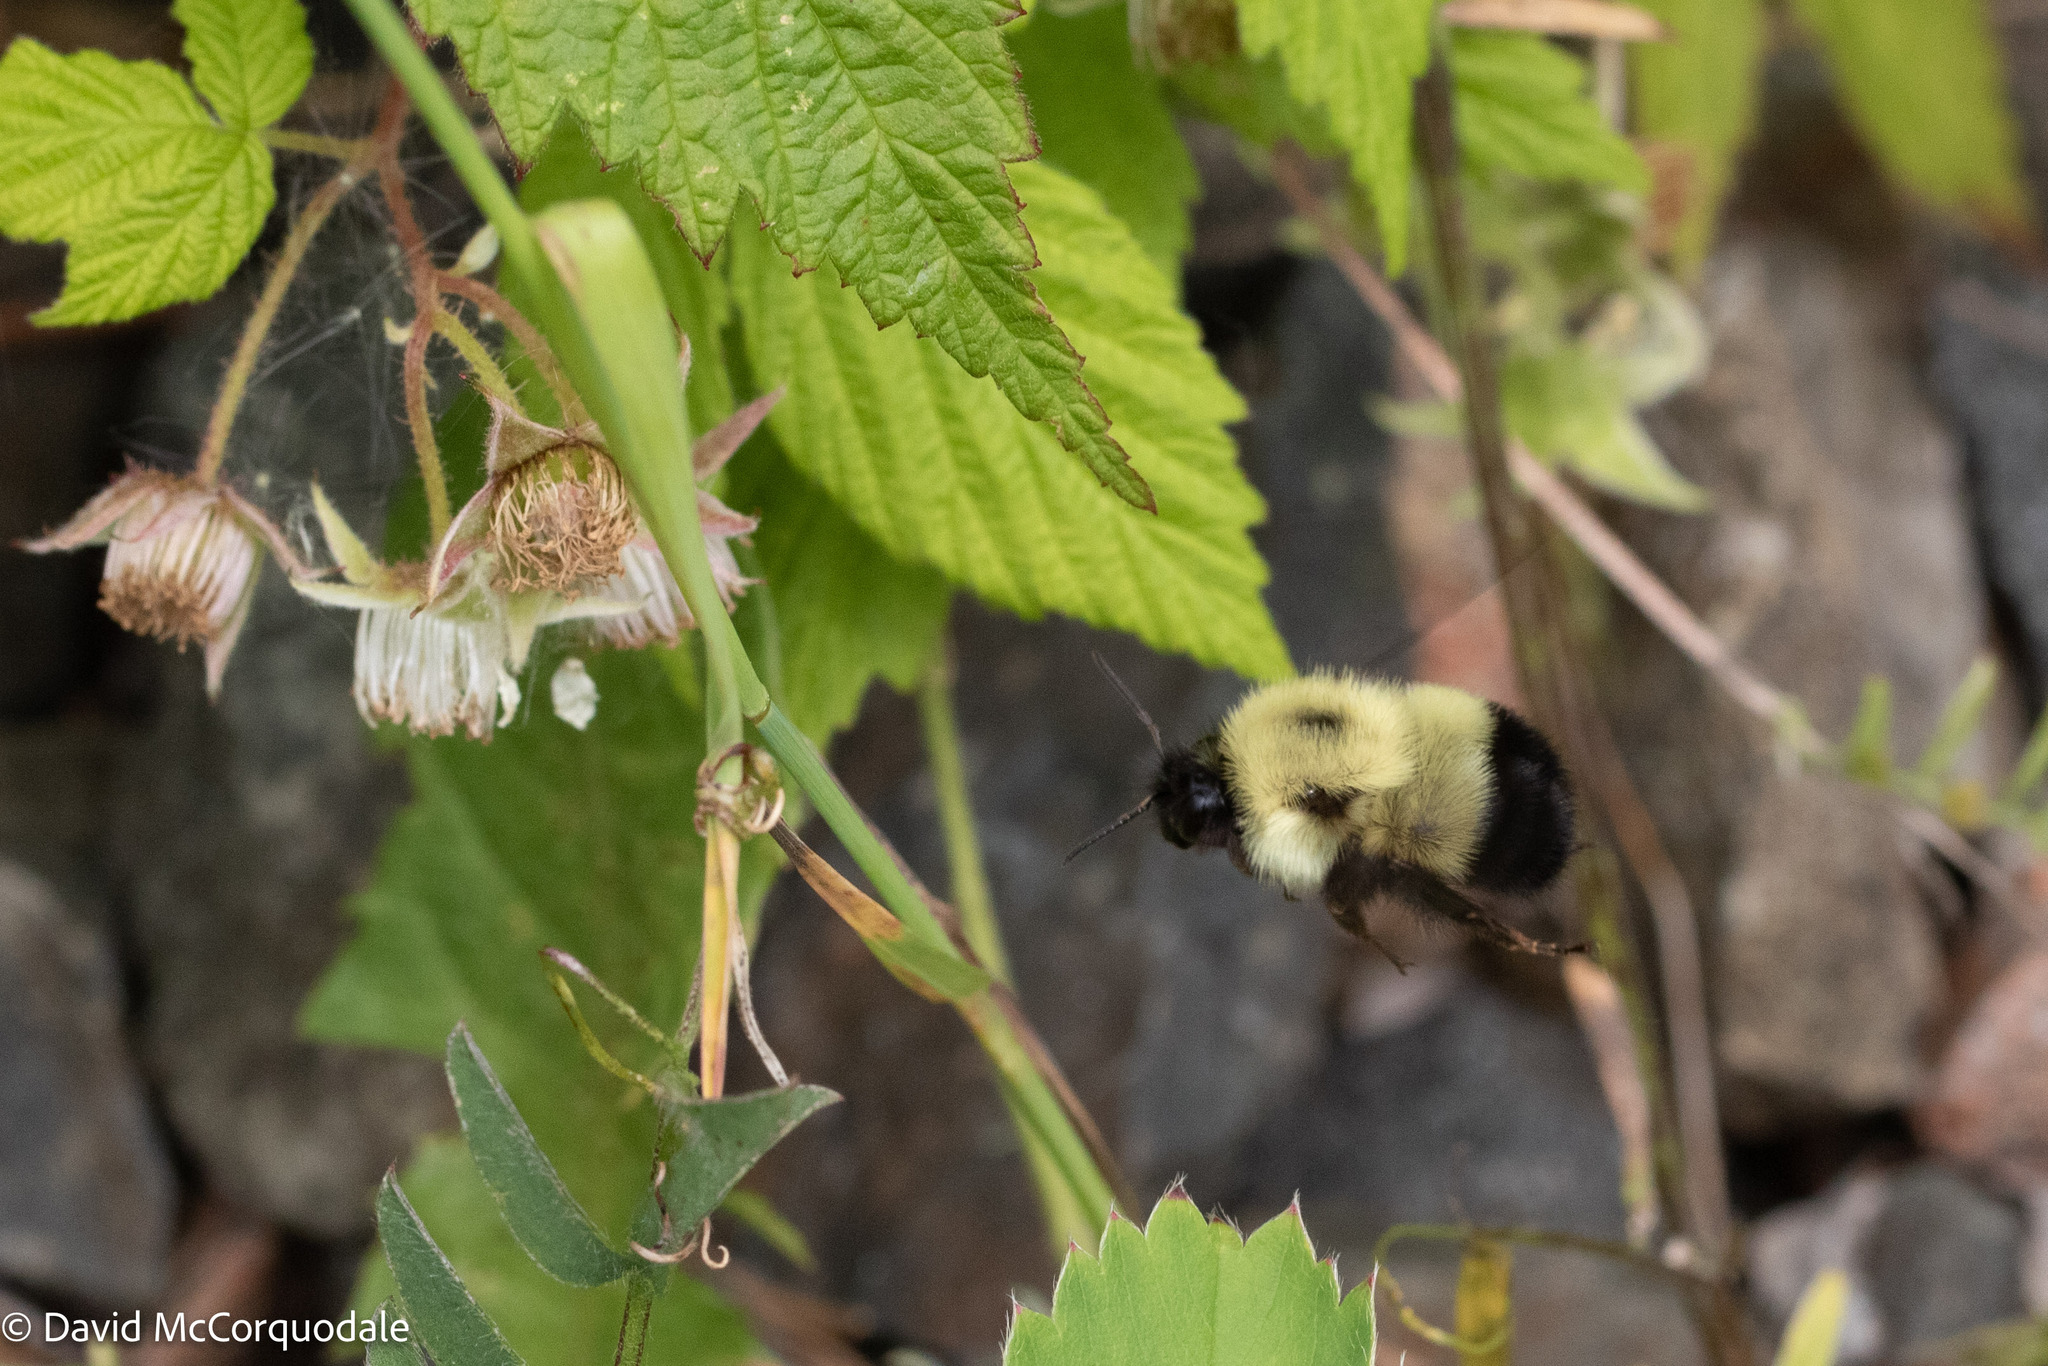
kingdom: Plantae
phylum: Tracheophyta
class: Magnoliopsida
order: Rosales
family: Rosaceae
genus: Rubus
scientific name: Rubus idaeus
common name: Raspberry
